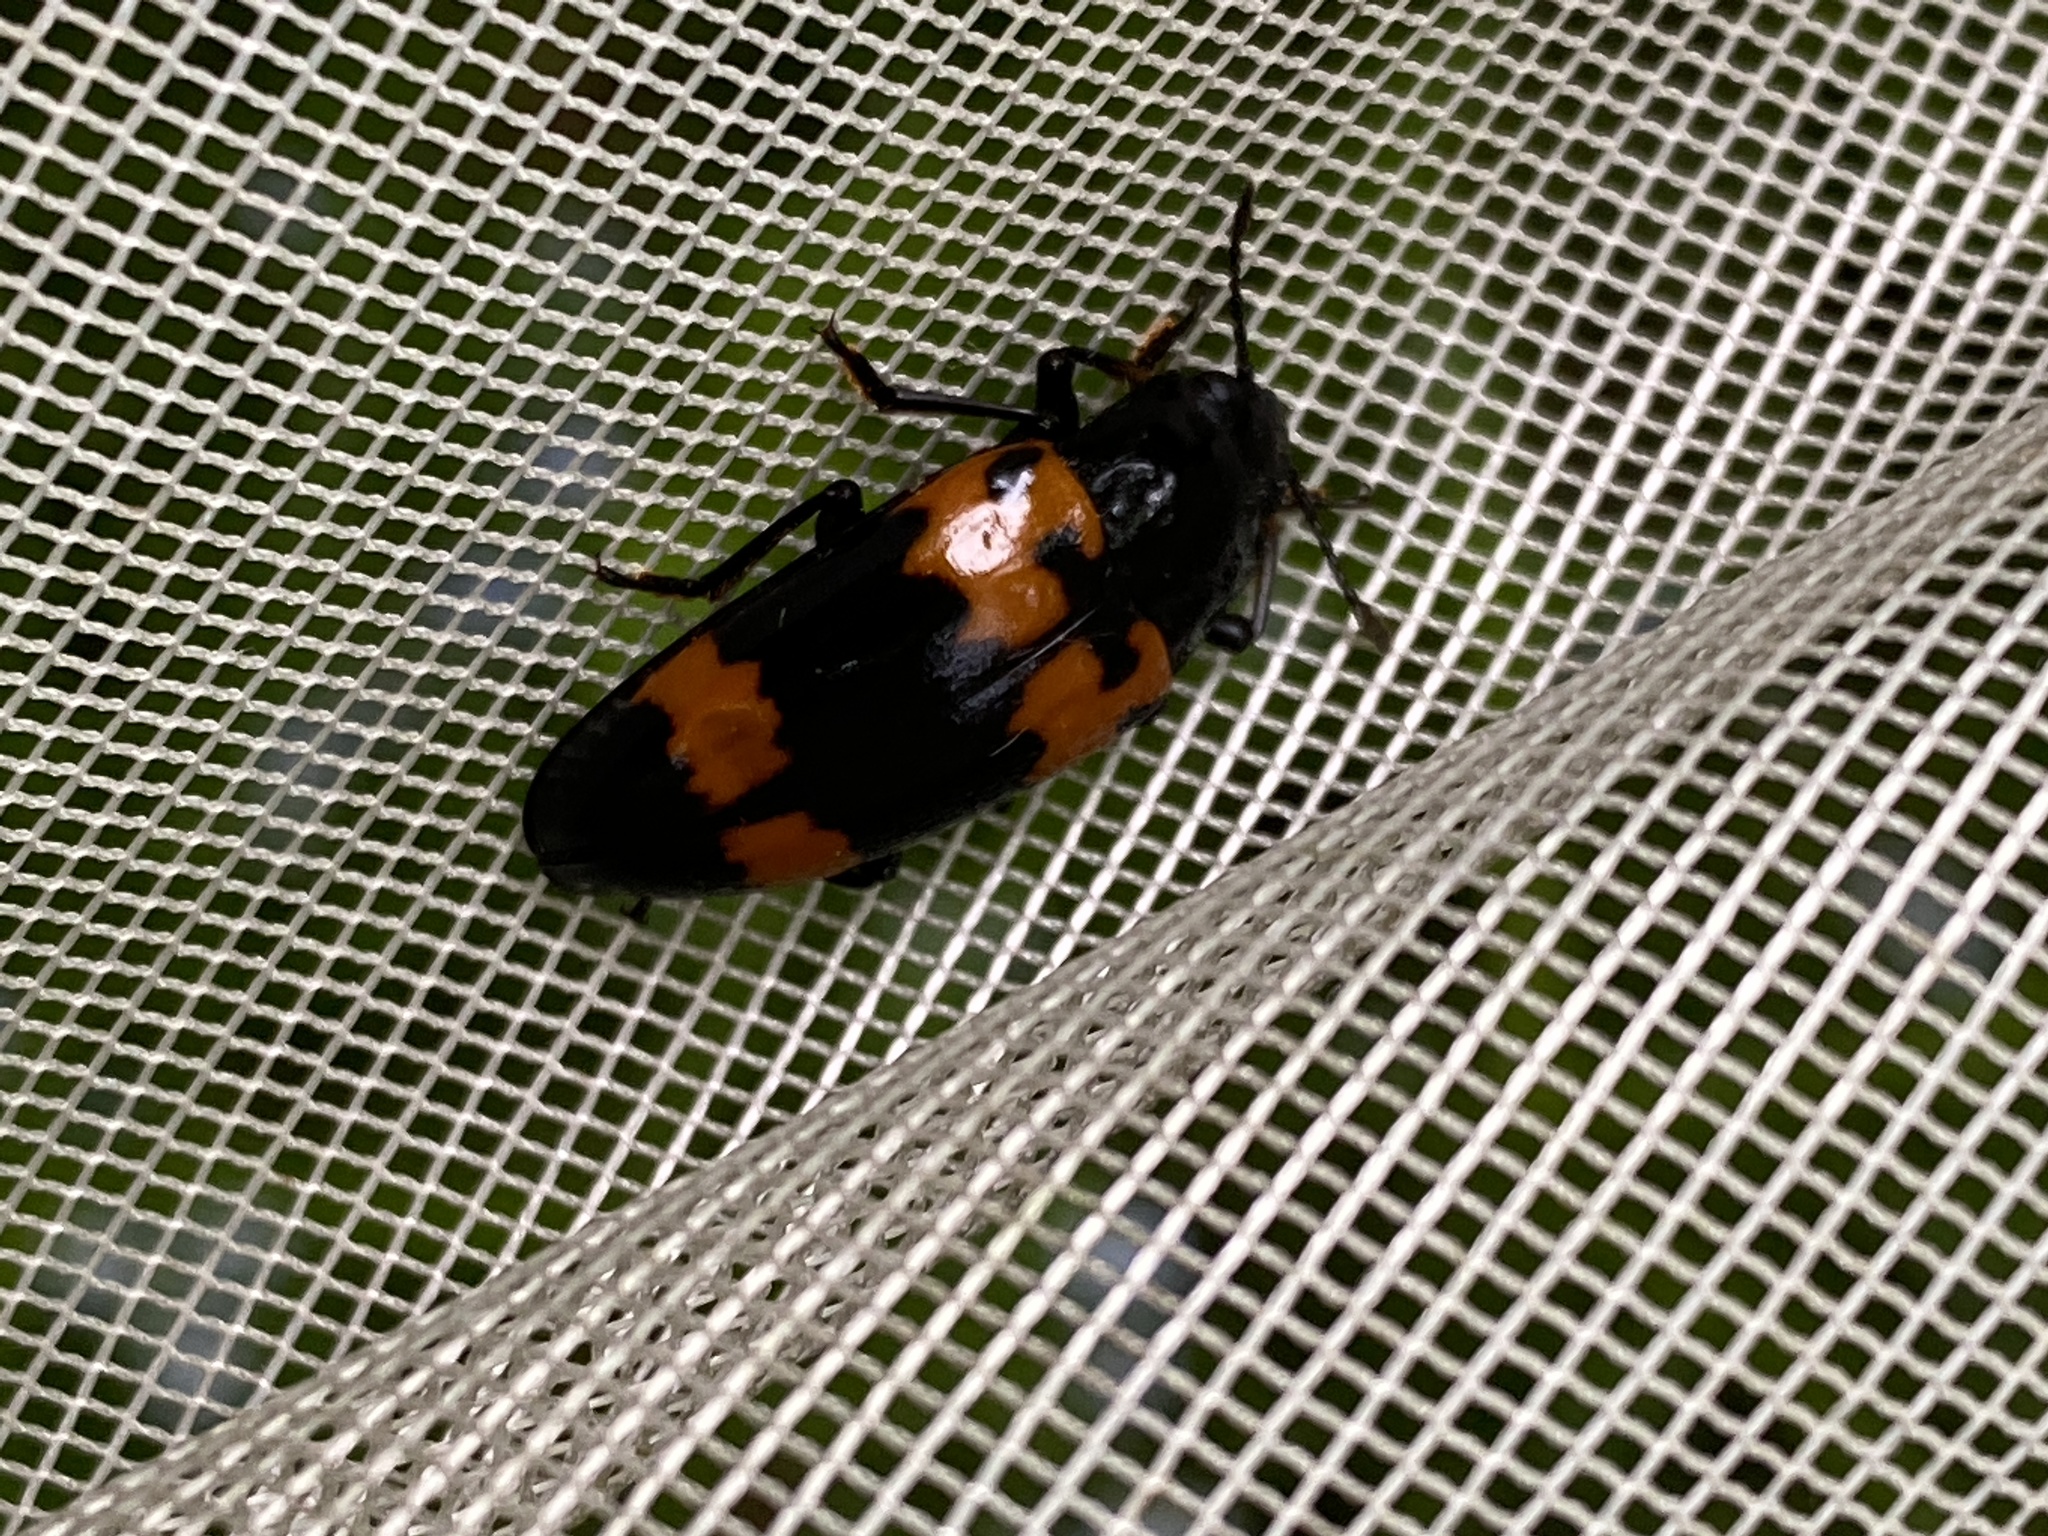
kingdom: Animalia
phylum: Arthropoda
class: Insecta
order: Coleoptera
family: Erotylidae
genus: Megalodacne
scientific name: Megalodacne heros
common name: Pleasing fungus beetle
